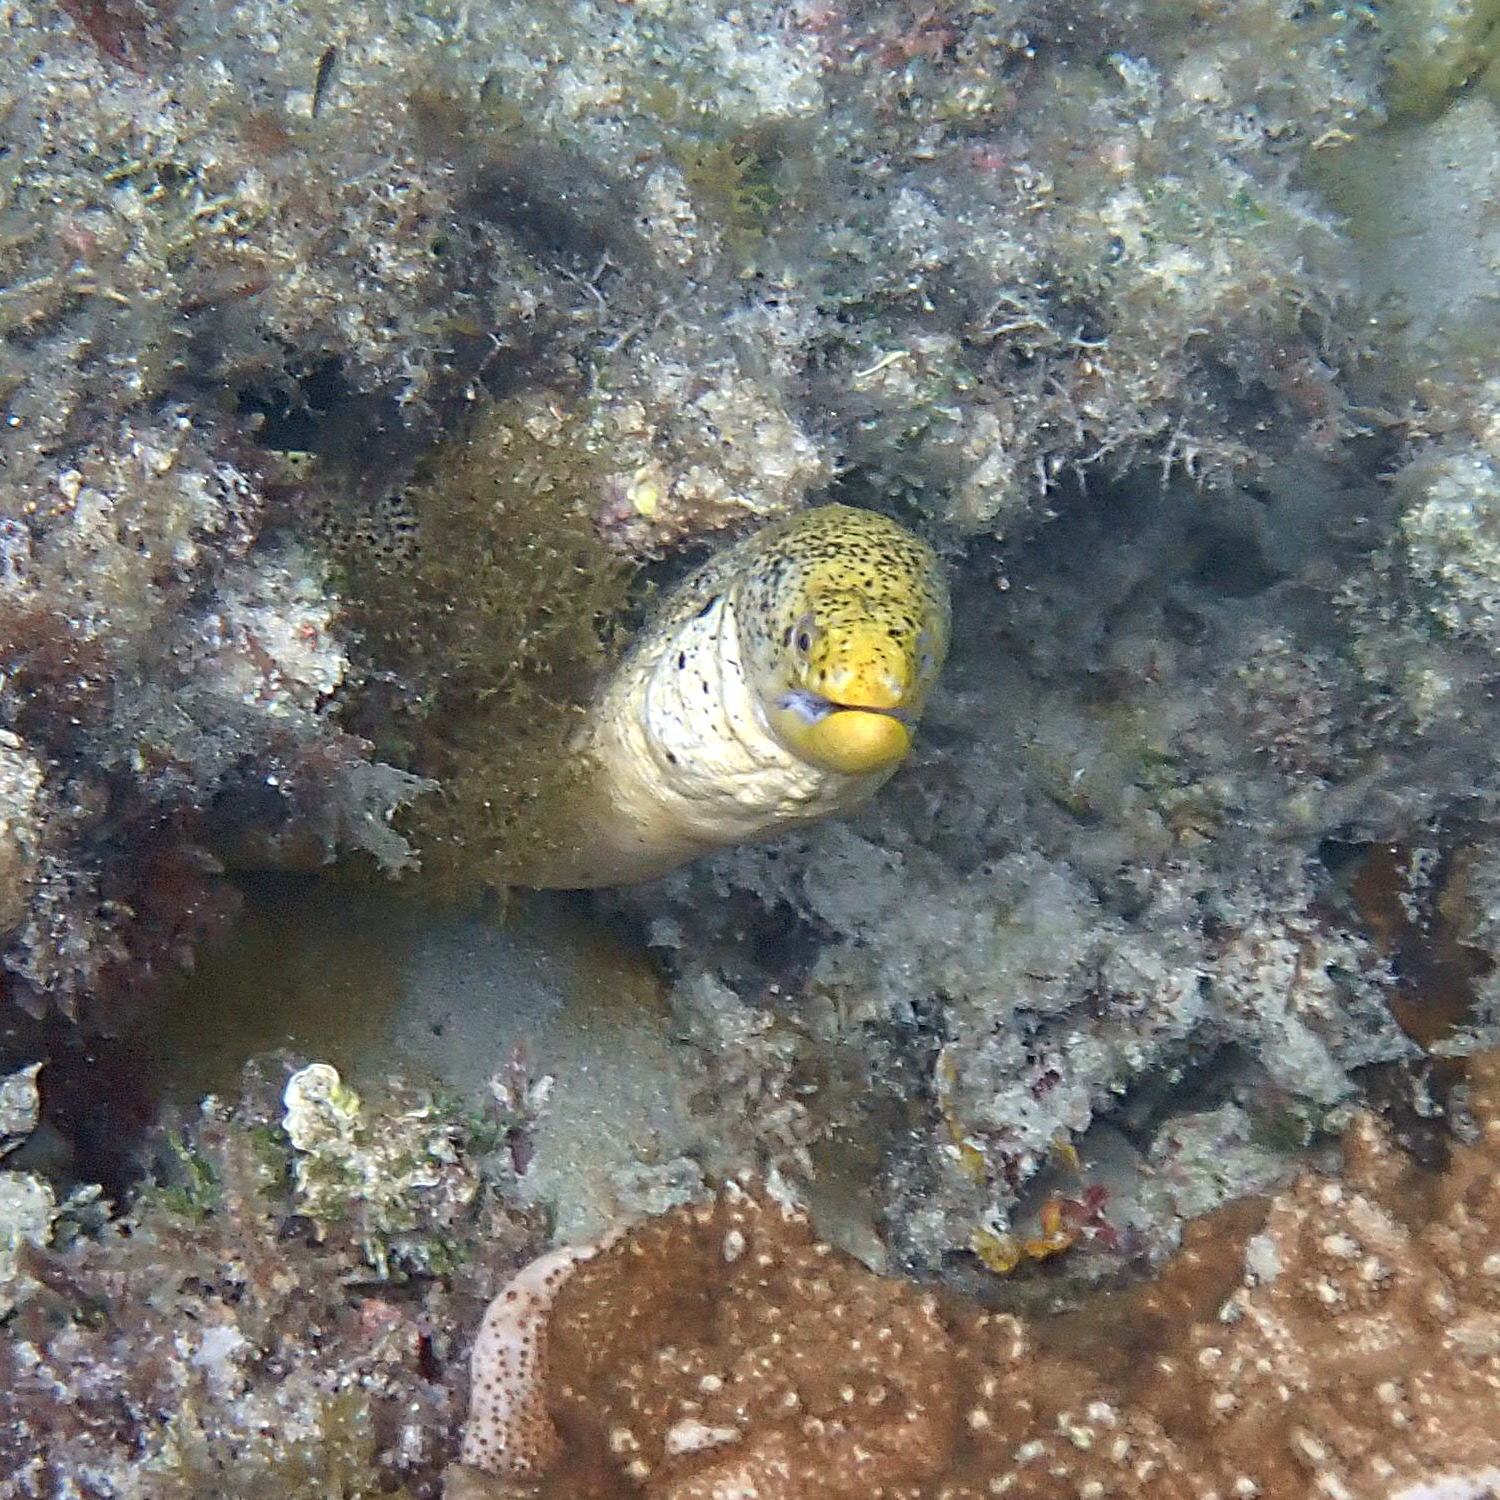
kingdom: Animalia
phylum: Chordata
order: Anguilliformes
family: Muraenidae
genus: Gymnothorax
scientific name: Gymnothorax eurostus
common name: Stout moray
